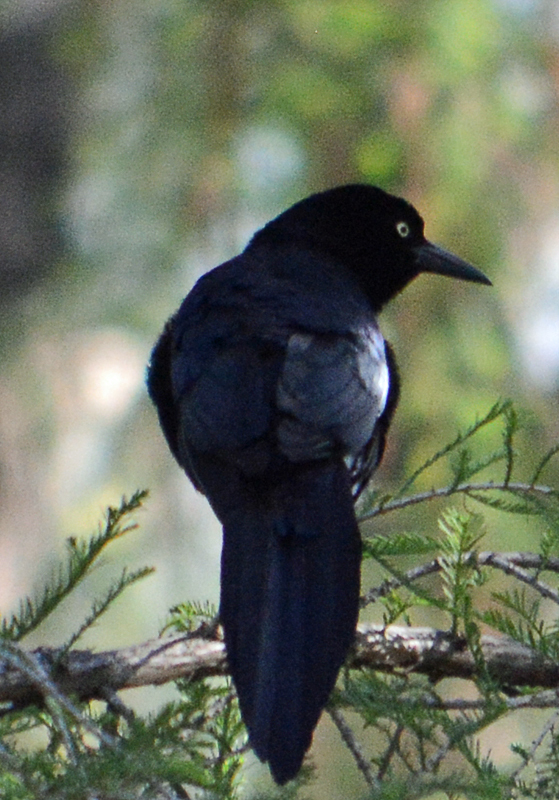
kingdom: Animalia
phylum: Chordata
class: Aves
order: Passeriformes
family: Icteridae
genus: Quiscalus
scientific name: Quiscalus mexicanus
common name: Great-tailed grackle
